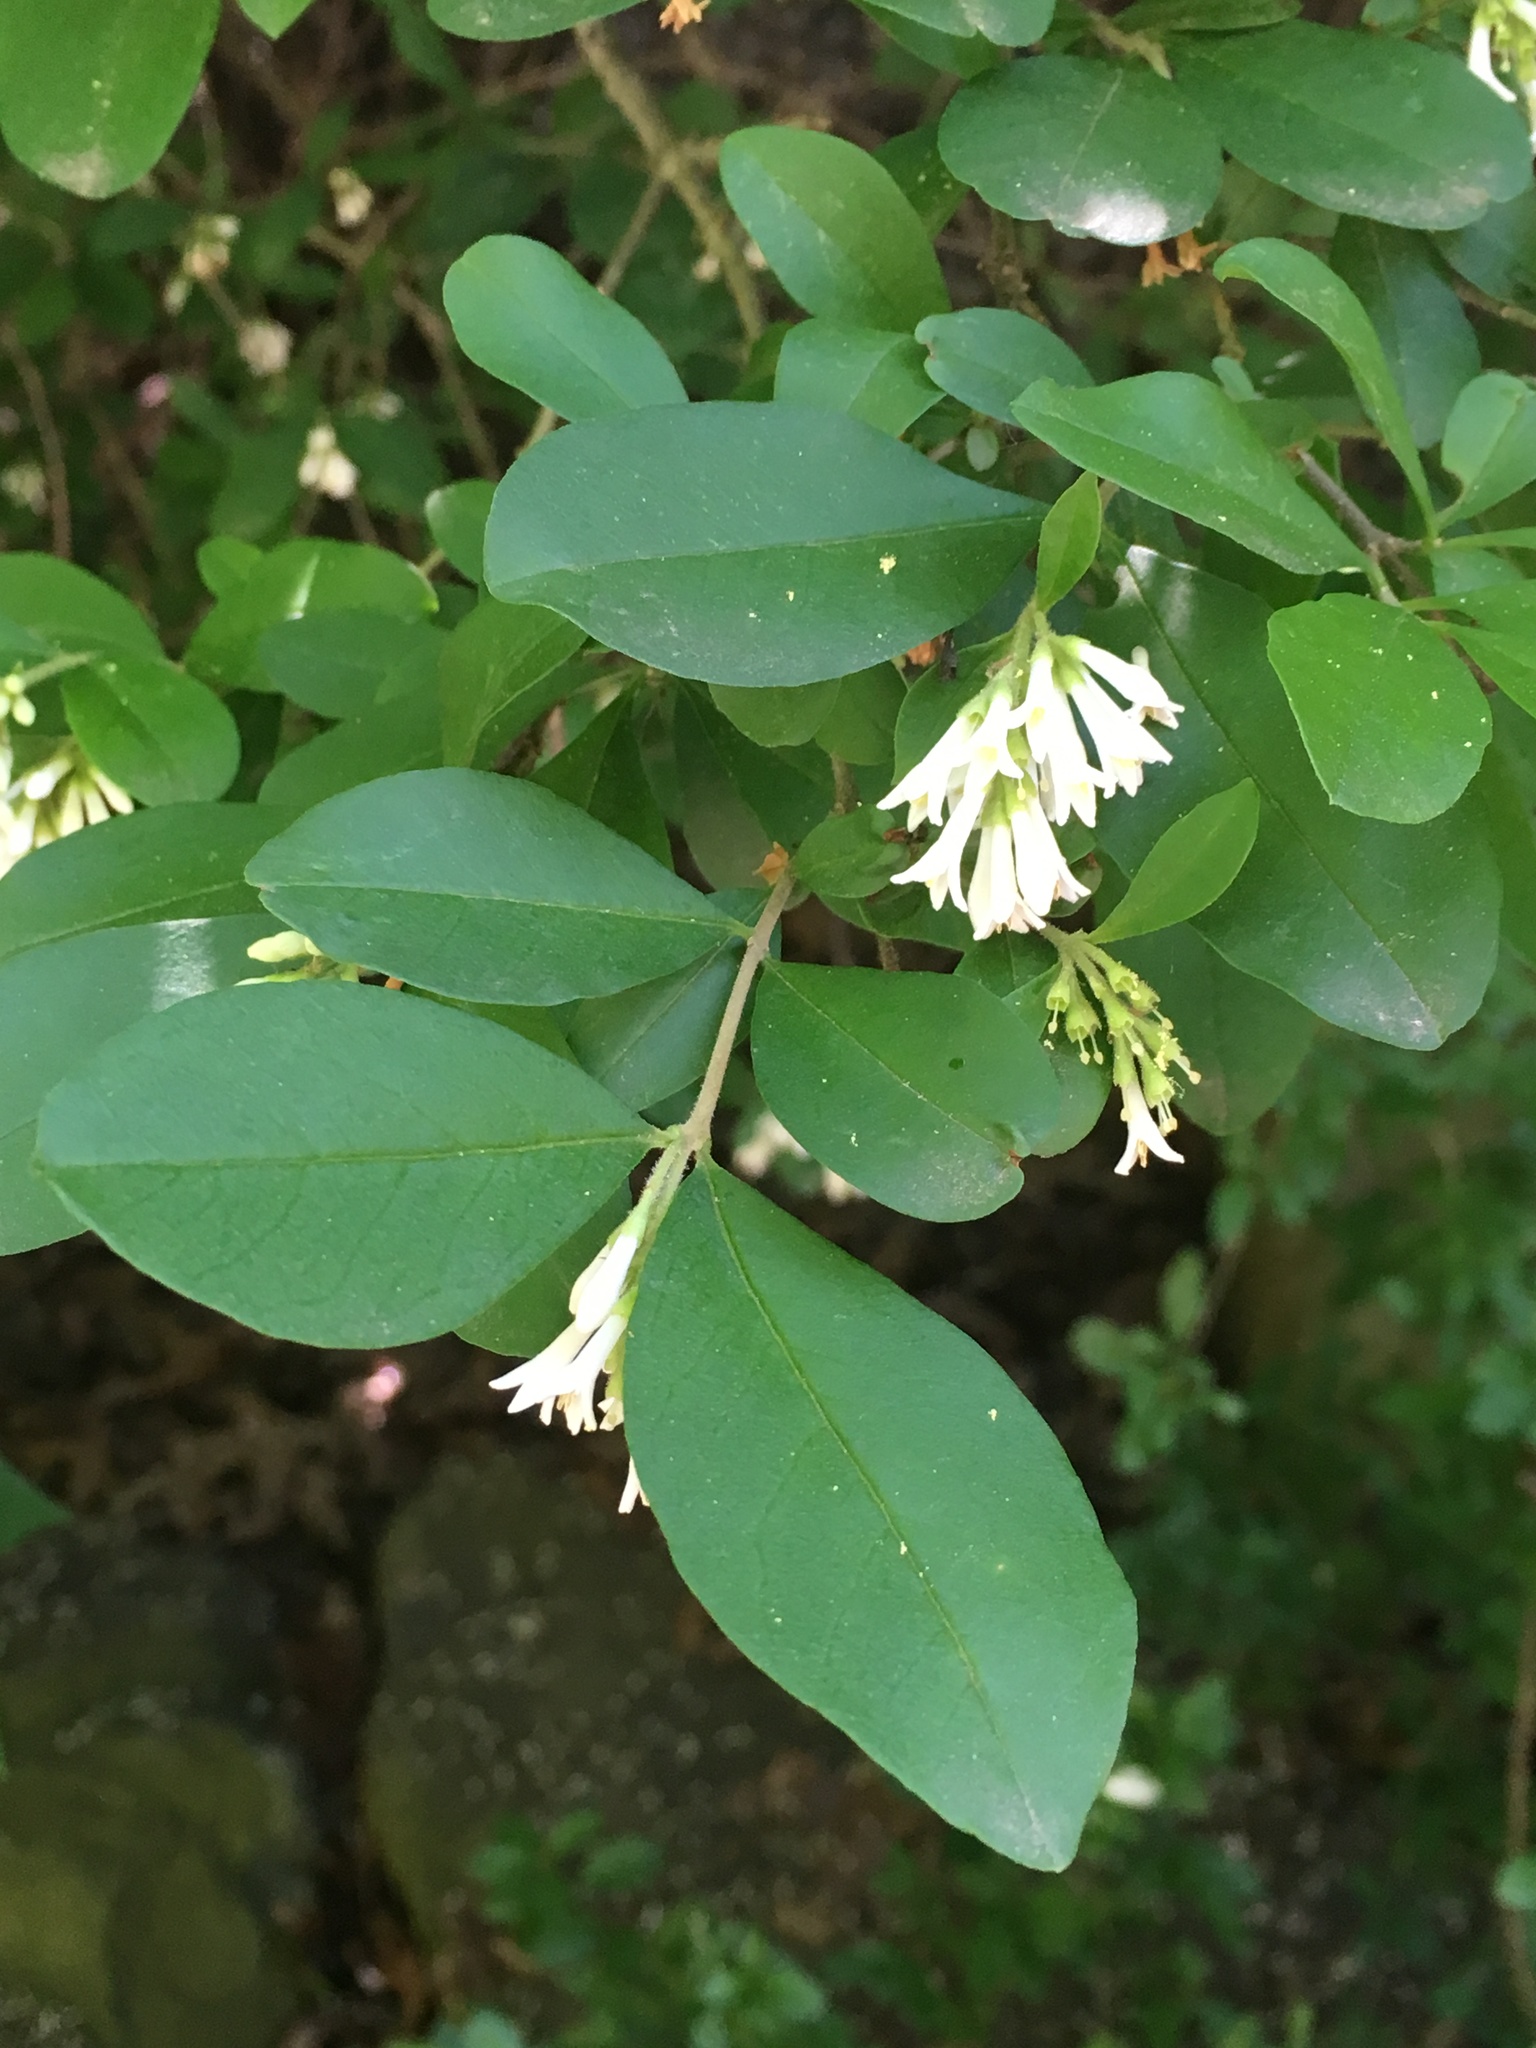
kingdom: Plantae
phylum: Tracheophyta
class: Magnoliopsida
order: Lamiales
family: Oleaceae
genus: Ligustrum
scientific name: Ligustrum obtusifolium
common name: Border privet
